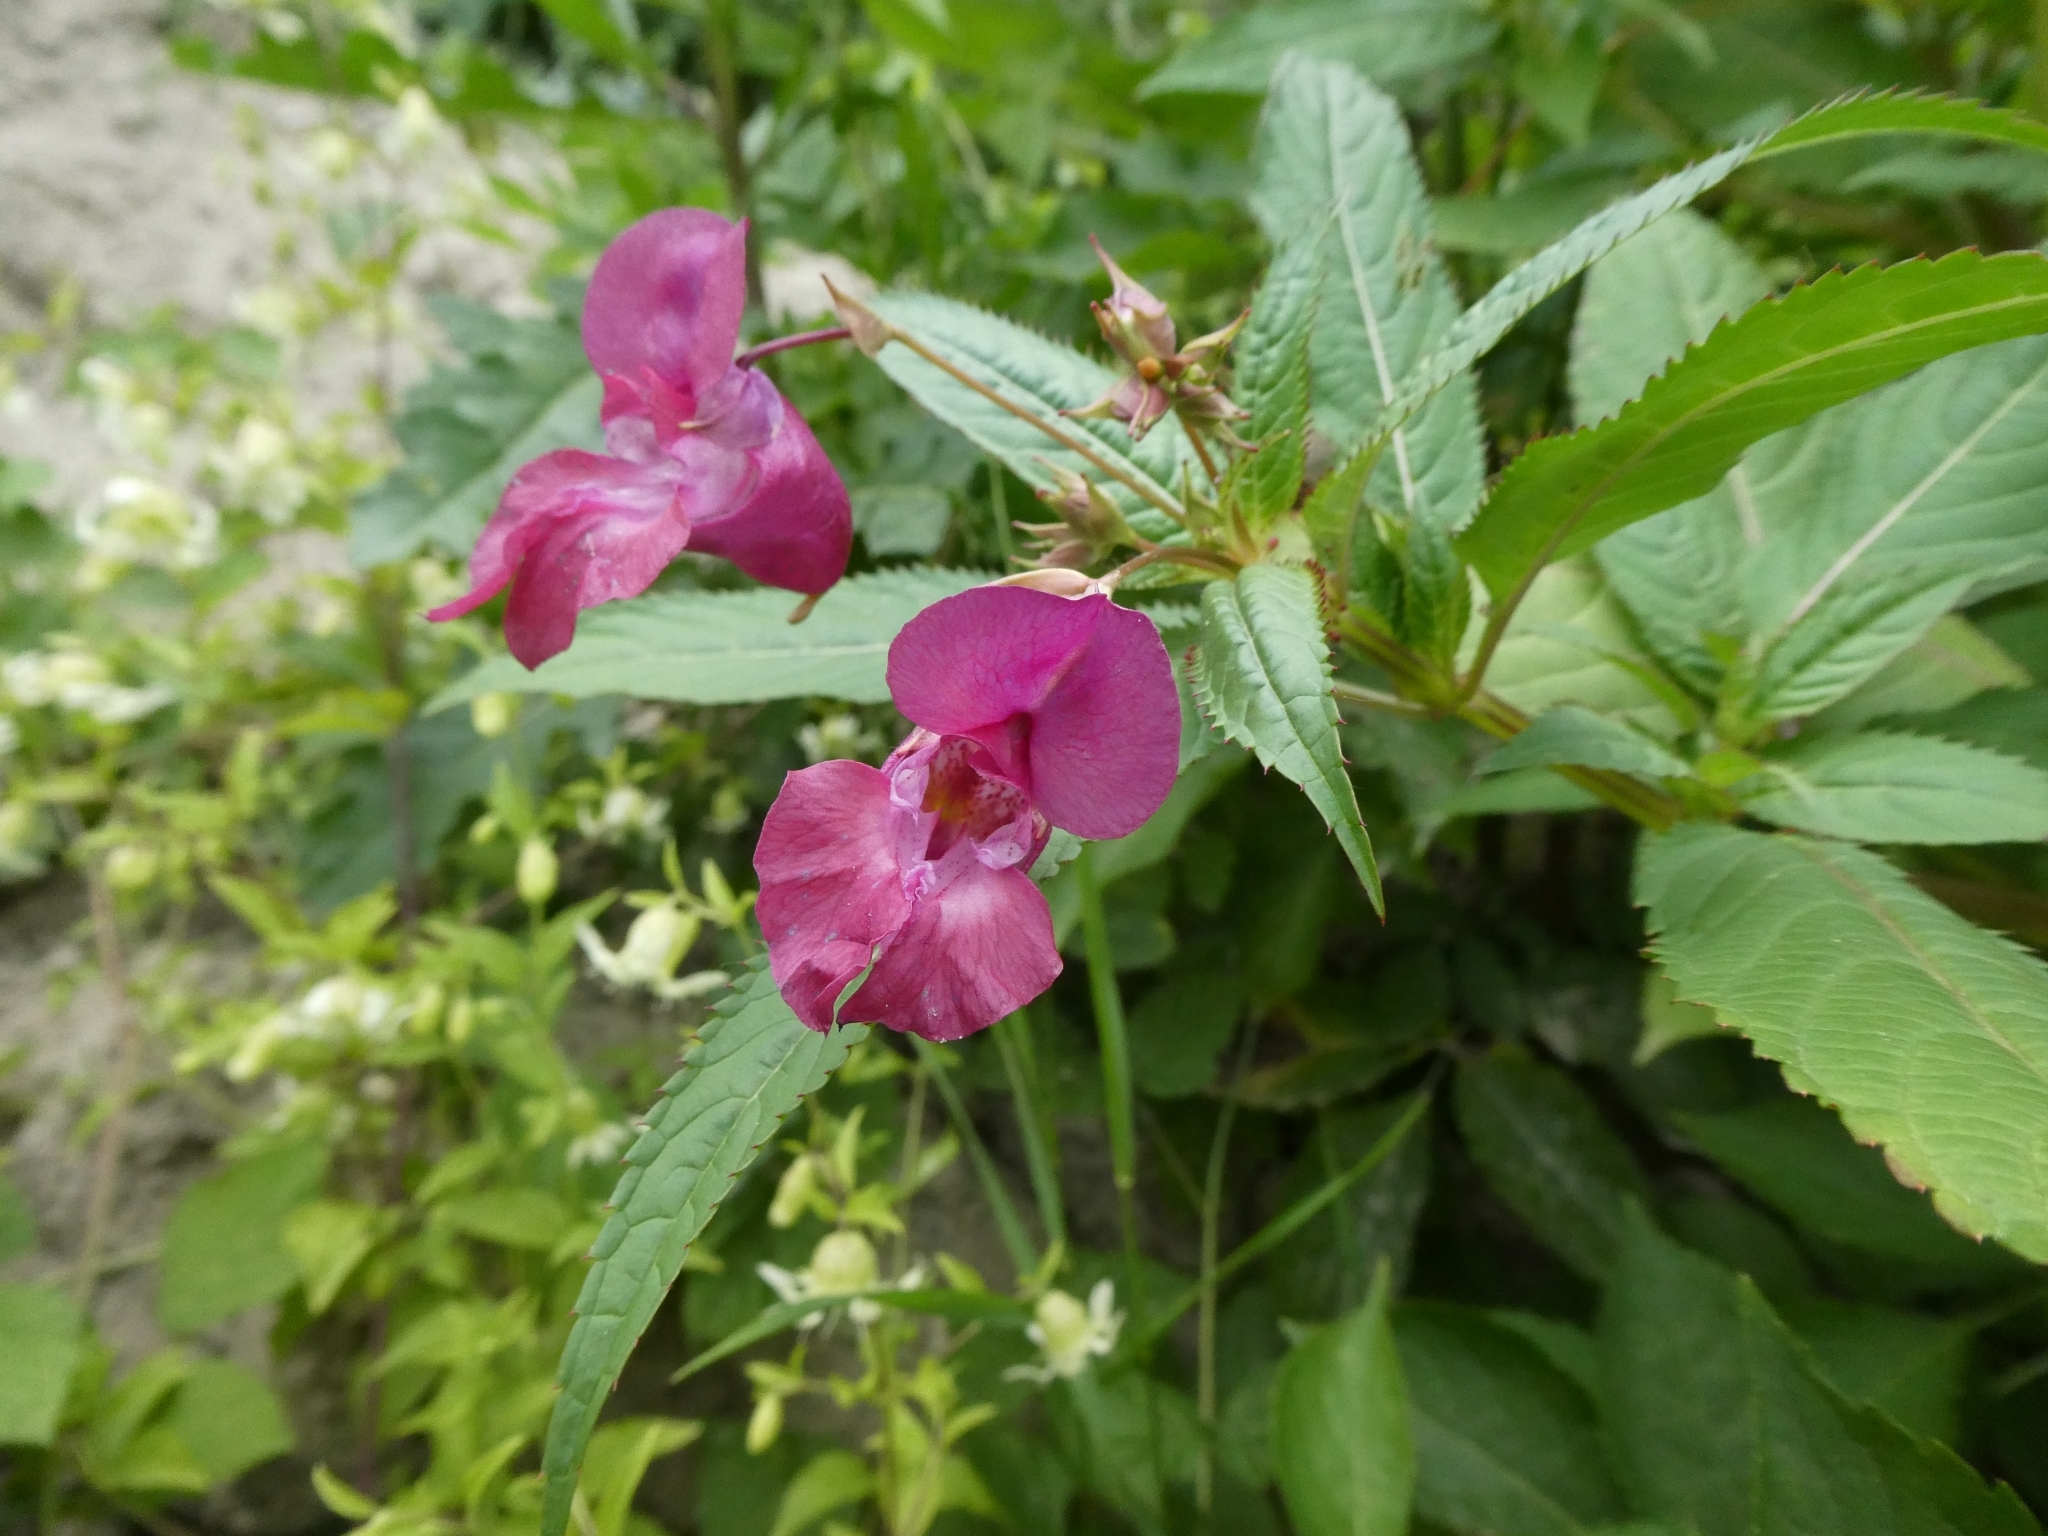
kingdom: Plantae
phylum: Tracheophyta
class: Magnoliopsida
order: Ericales
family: Balsaminaceae
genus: Impatiens
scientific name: Impatiens glandulifera
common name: Himalayan balsam
